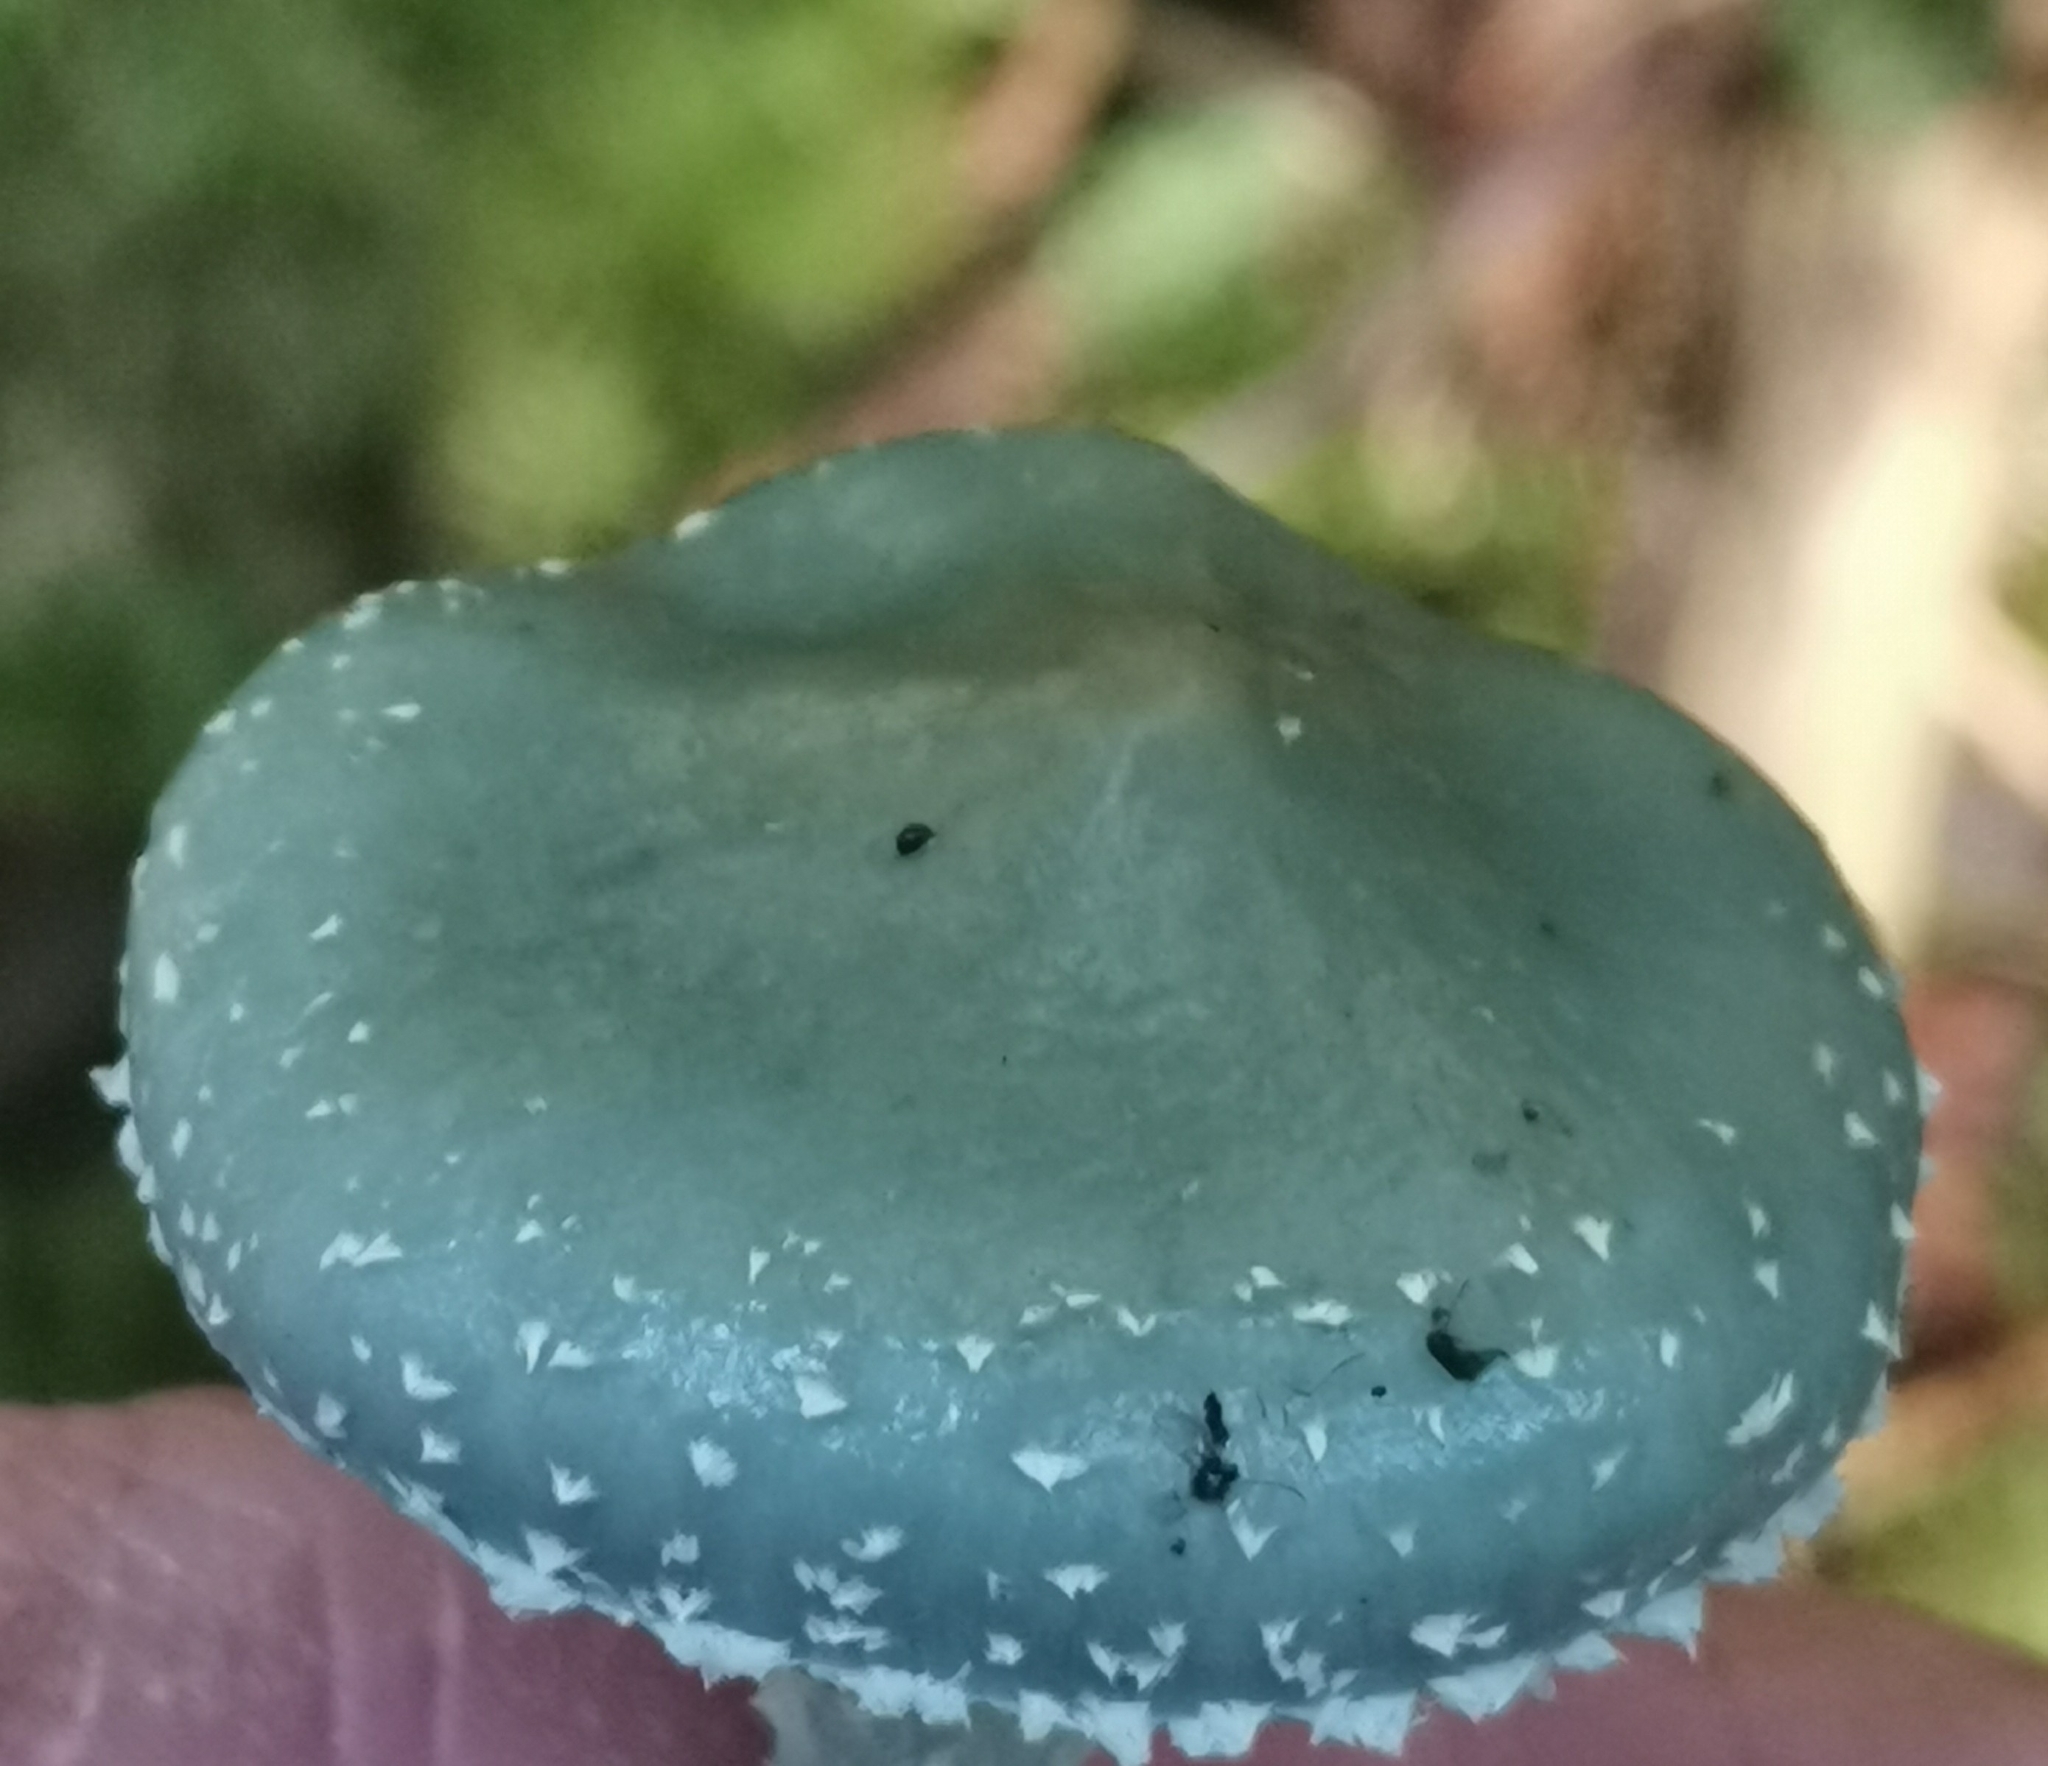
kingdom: Fungi
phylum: Basidiomycota
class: Agaricomycetes
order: Agaricales
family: Strophariaceae
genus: Stropharia
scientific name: Stropharia aeruginosa
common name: Verdigris roundhead
